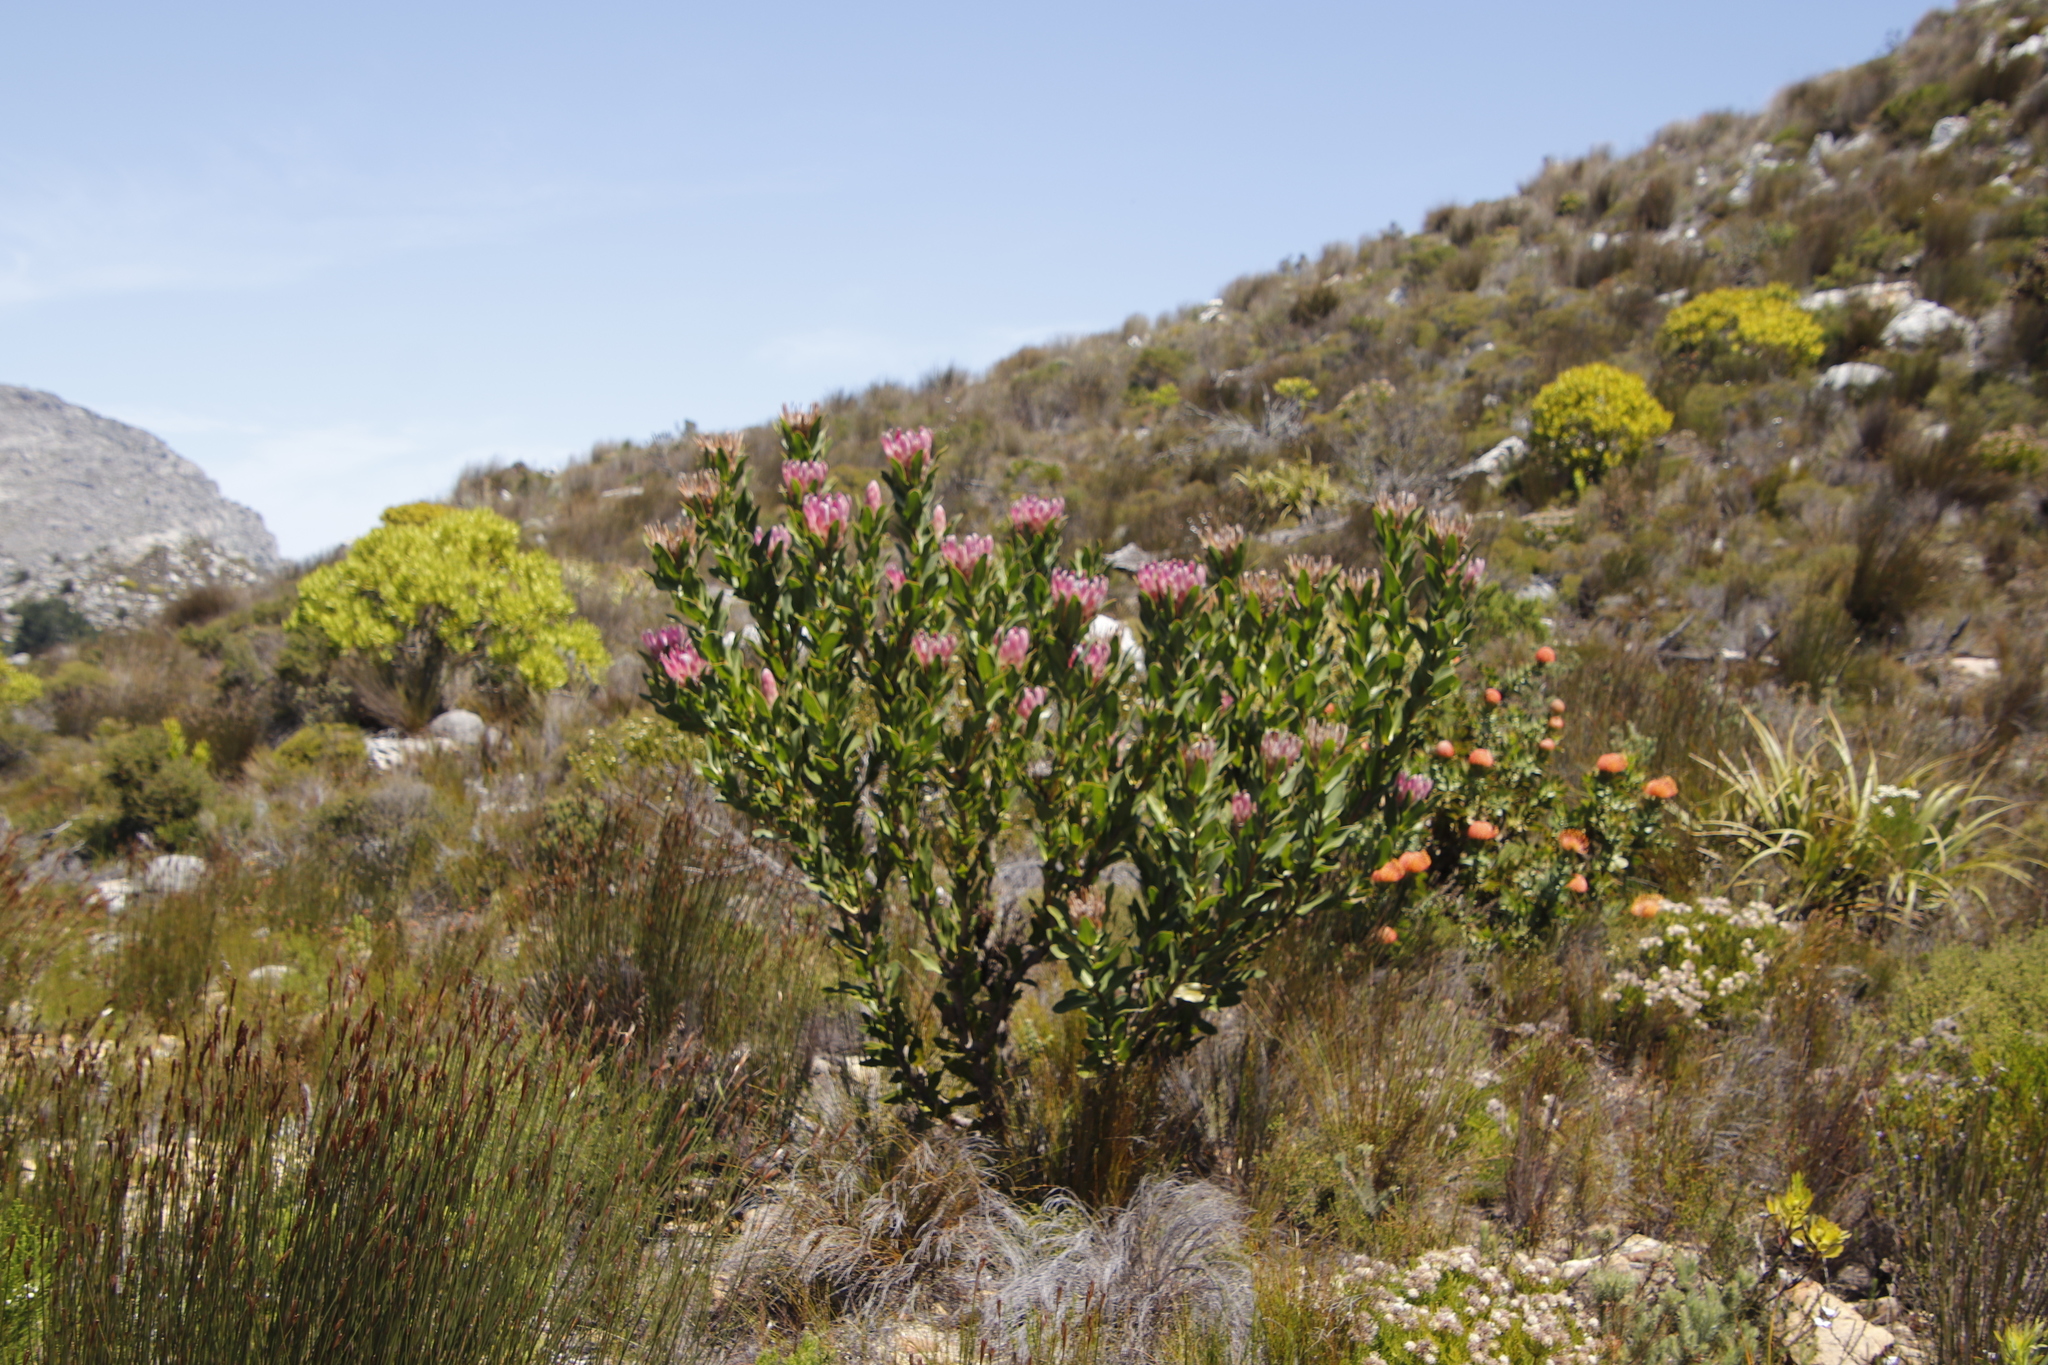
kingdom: Plantae
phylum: Tracheophyta
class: Magnoliopsida
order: Proteales
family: Proteaceae
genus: Protea
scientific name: Protea compacta
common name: Bot river protea
